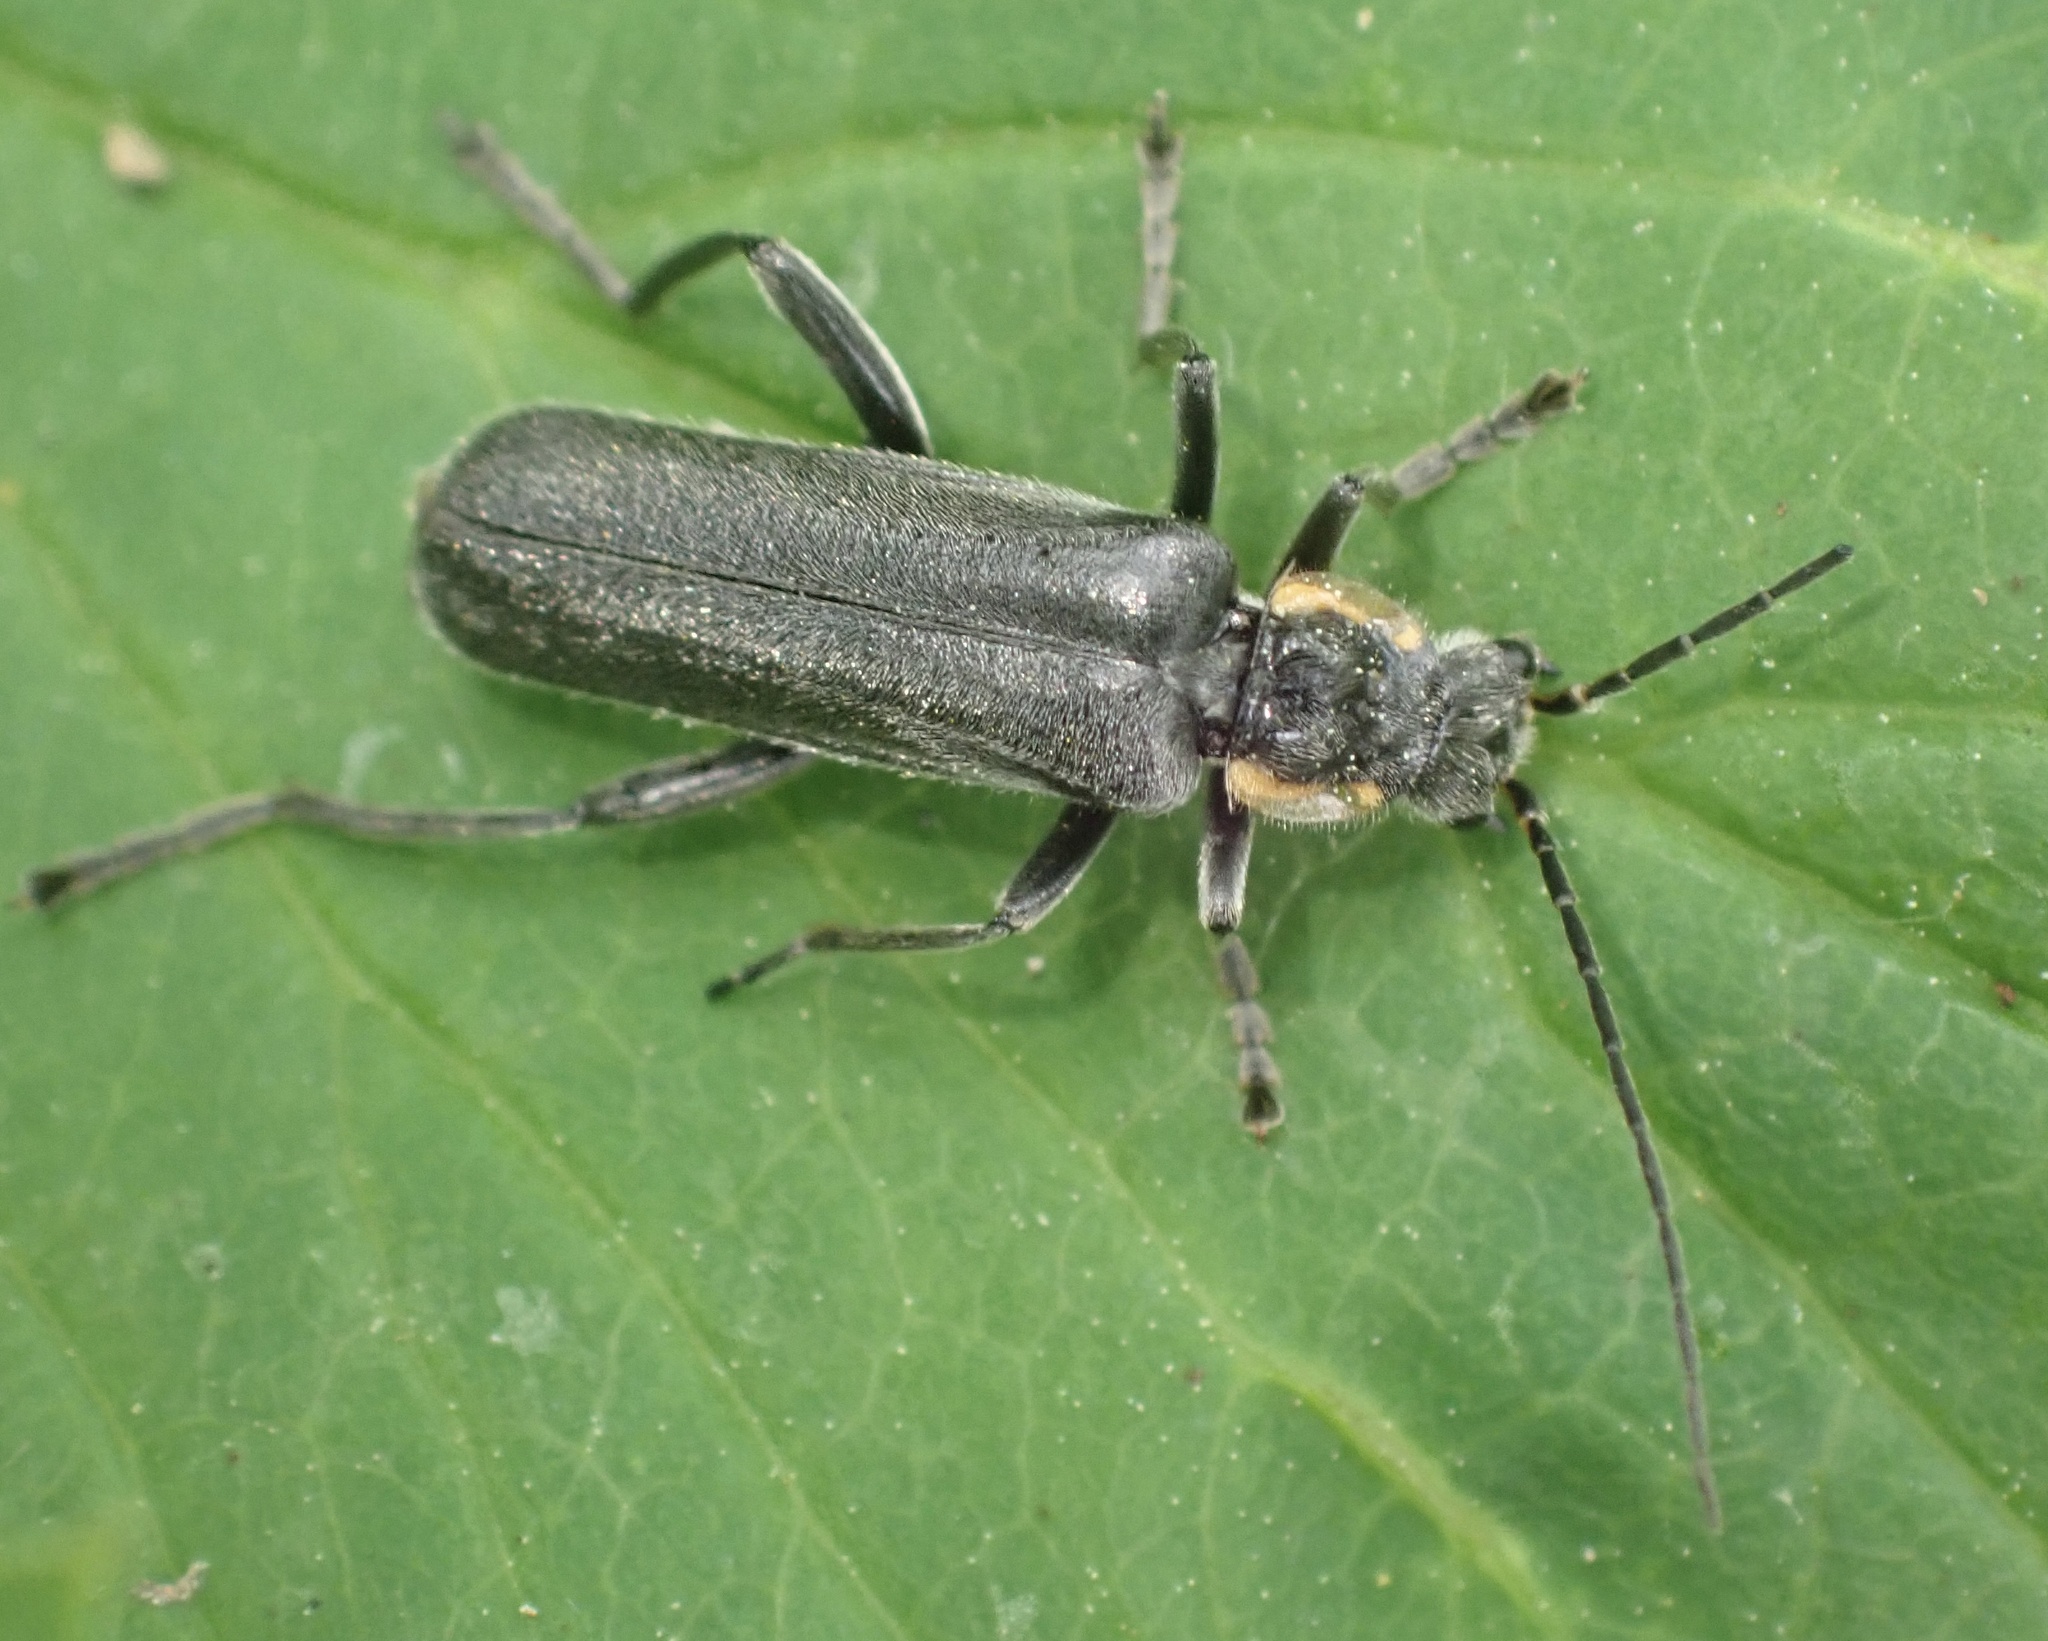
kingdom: Animalia
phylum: Arthropoda
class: Insecta
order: Coleoptera
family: Cantharidae
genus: Cantharis
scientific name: Cantharis paradoxa
